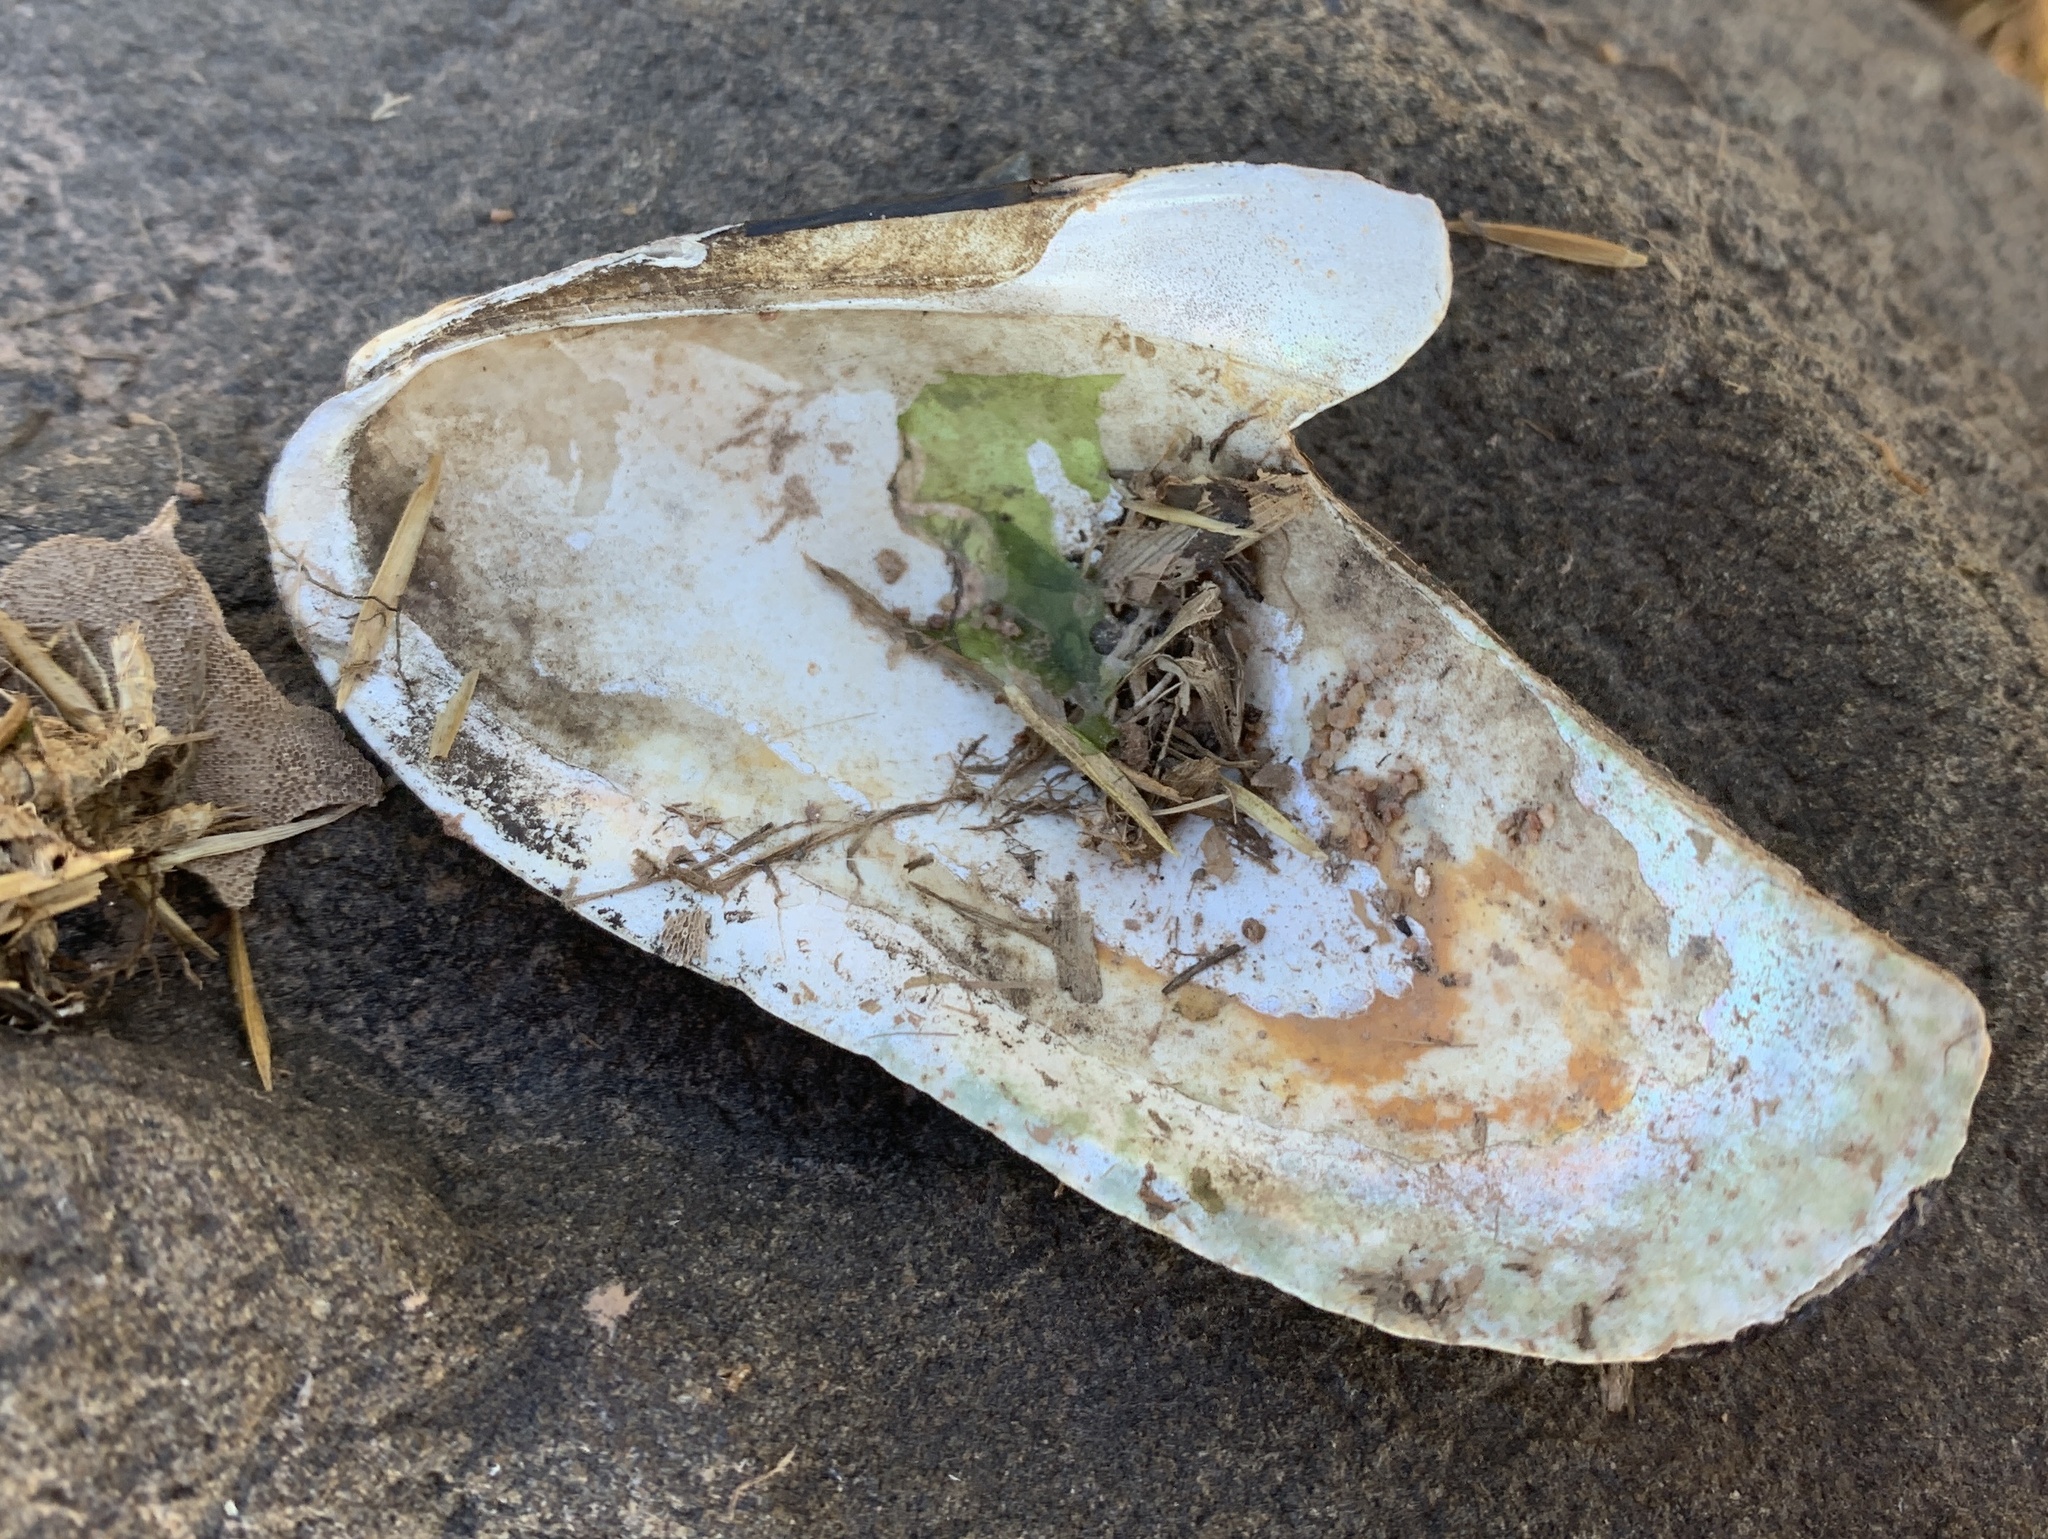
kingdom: Animalia
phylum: Mollusca
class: Bivalvia
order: Mytilida
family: Mytilidae
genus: Modiolus
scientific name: Modiolus modiolus
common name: Horse-mussel
